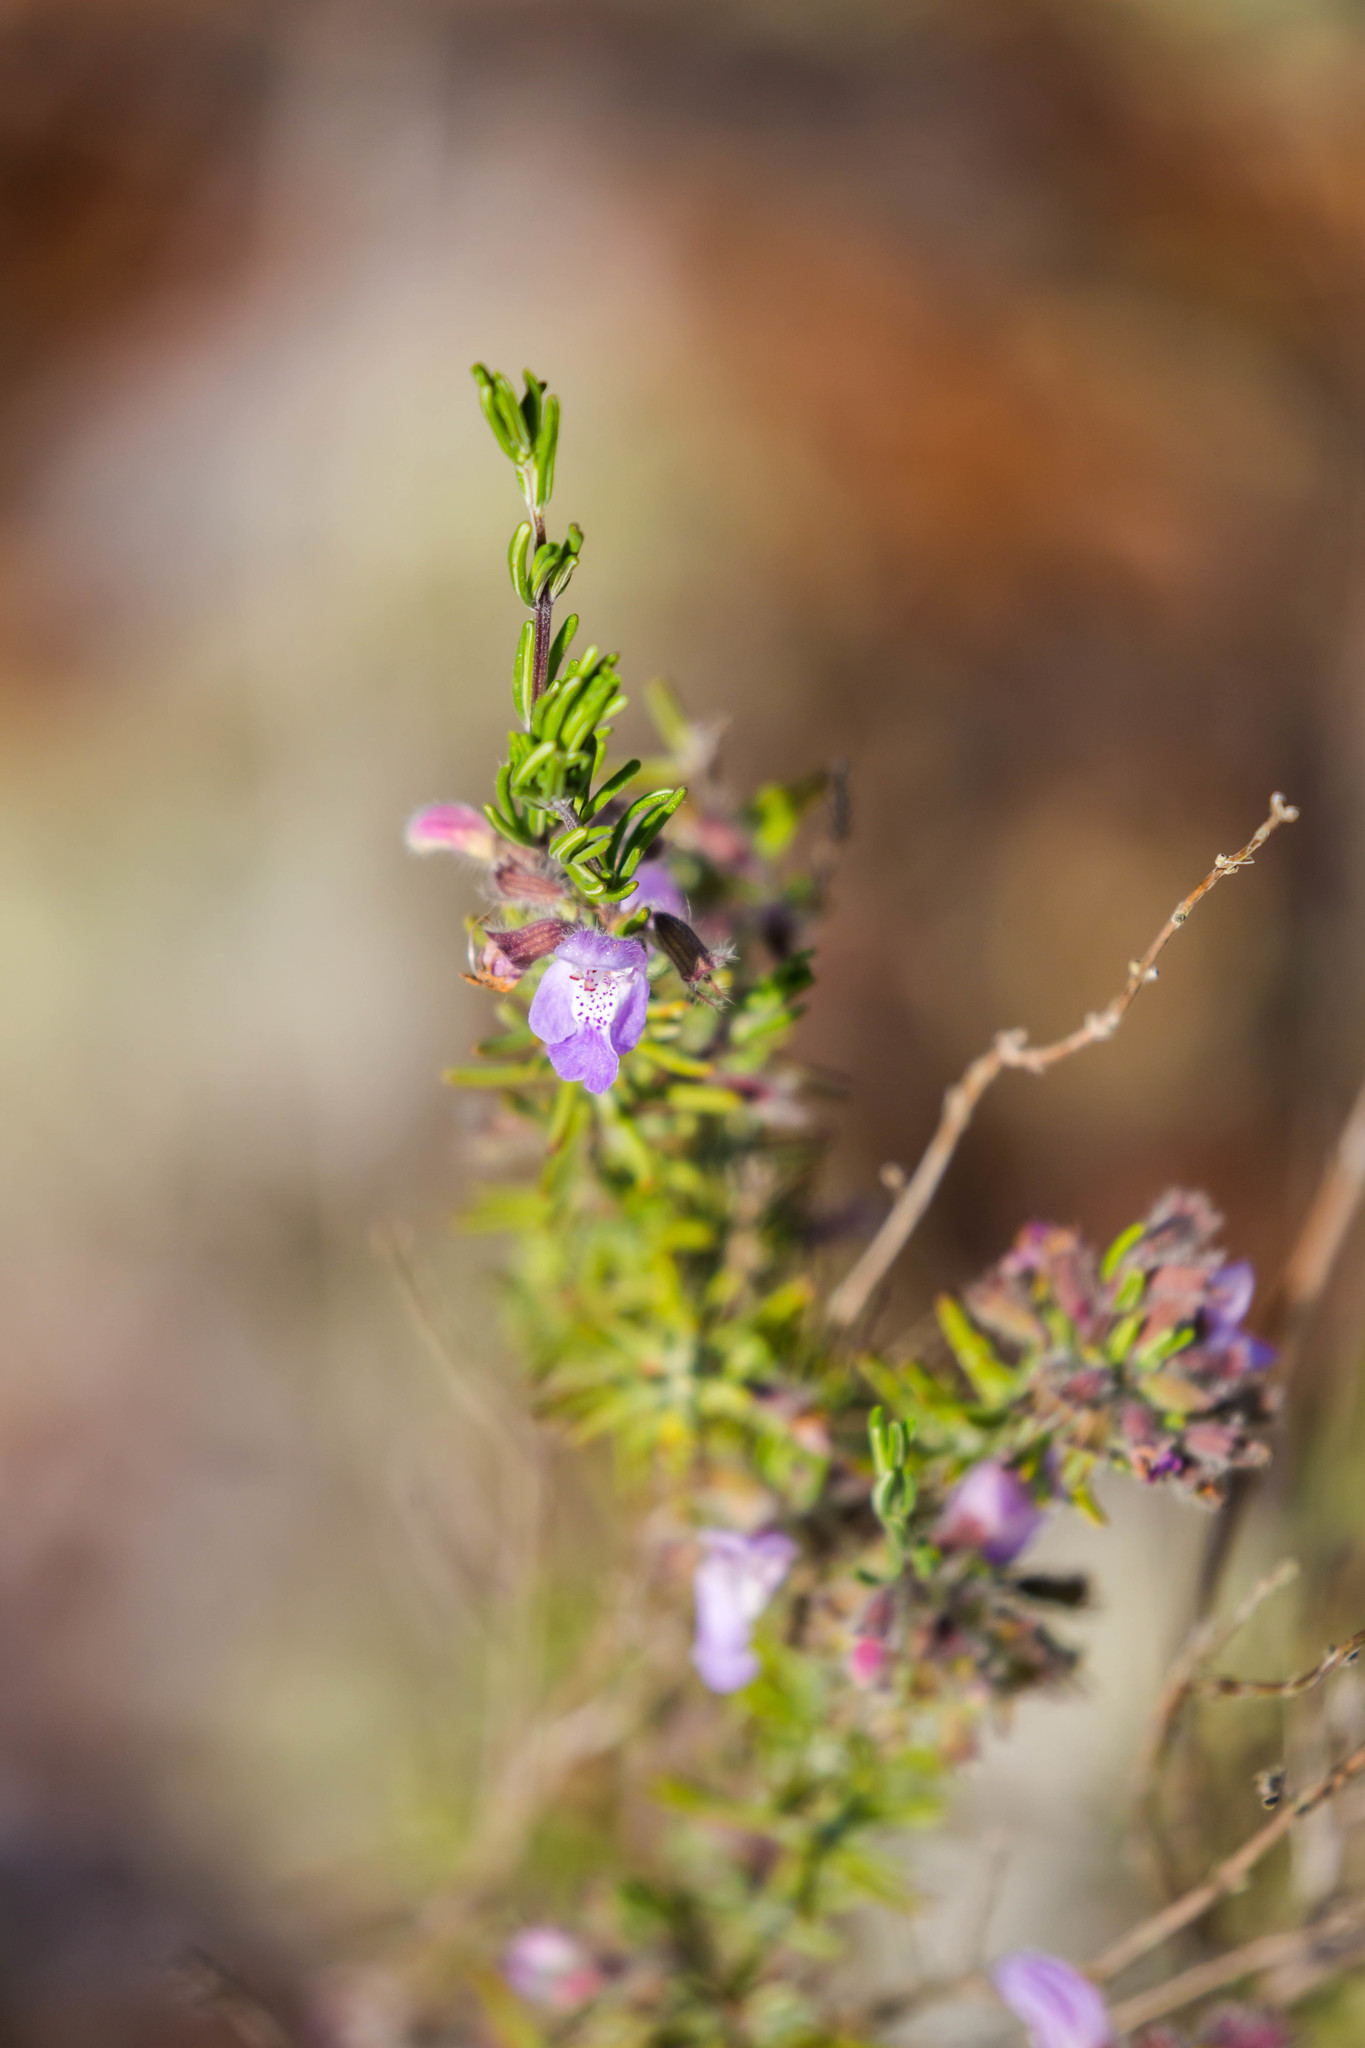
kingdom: Plantae
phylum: Tracheophyta
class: Magnoliopsida
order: Lamiales
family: Lamiaceae
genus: Conradina
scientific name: Conradina canescens
